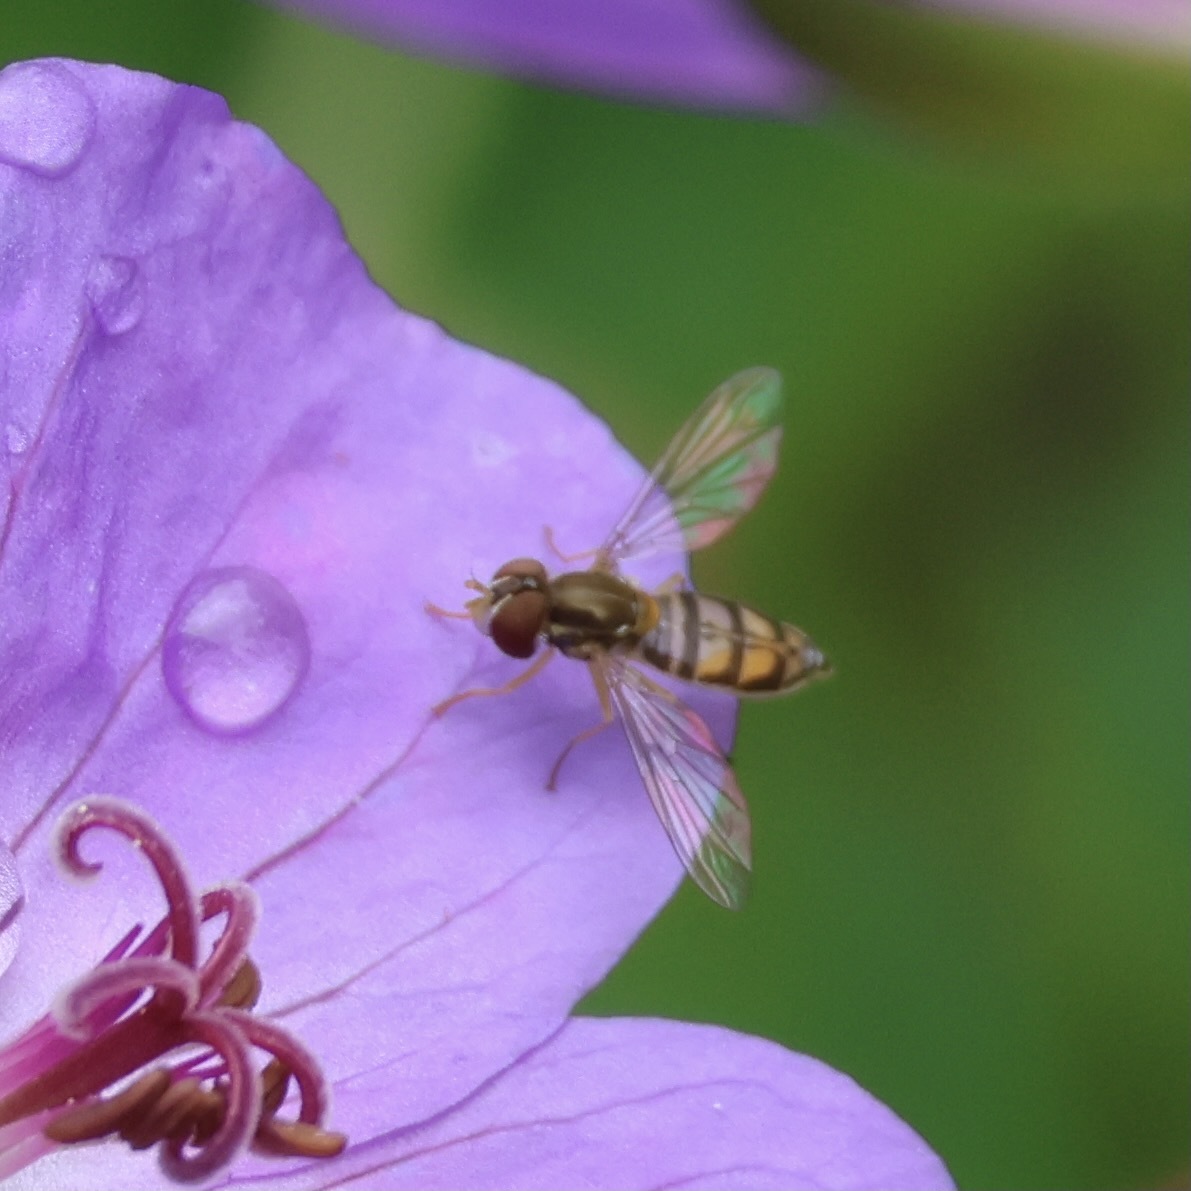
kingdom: Animalia
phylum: Arthropoda
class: Insecta
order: Diptera
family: Syrphidae
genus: Toxomerus
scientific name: Toxomerus marginatus
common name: Syrphid fly
